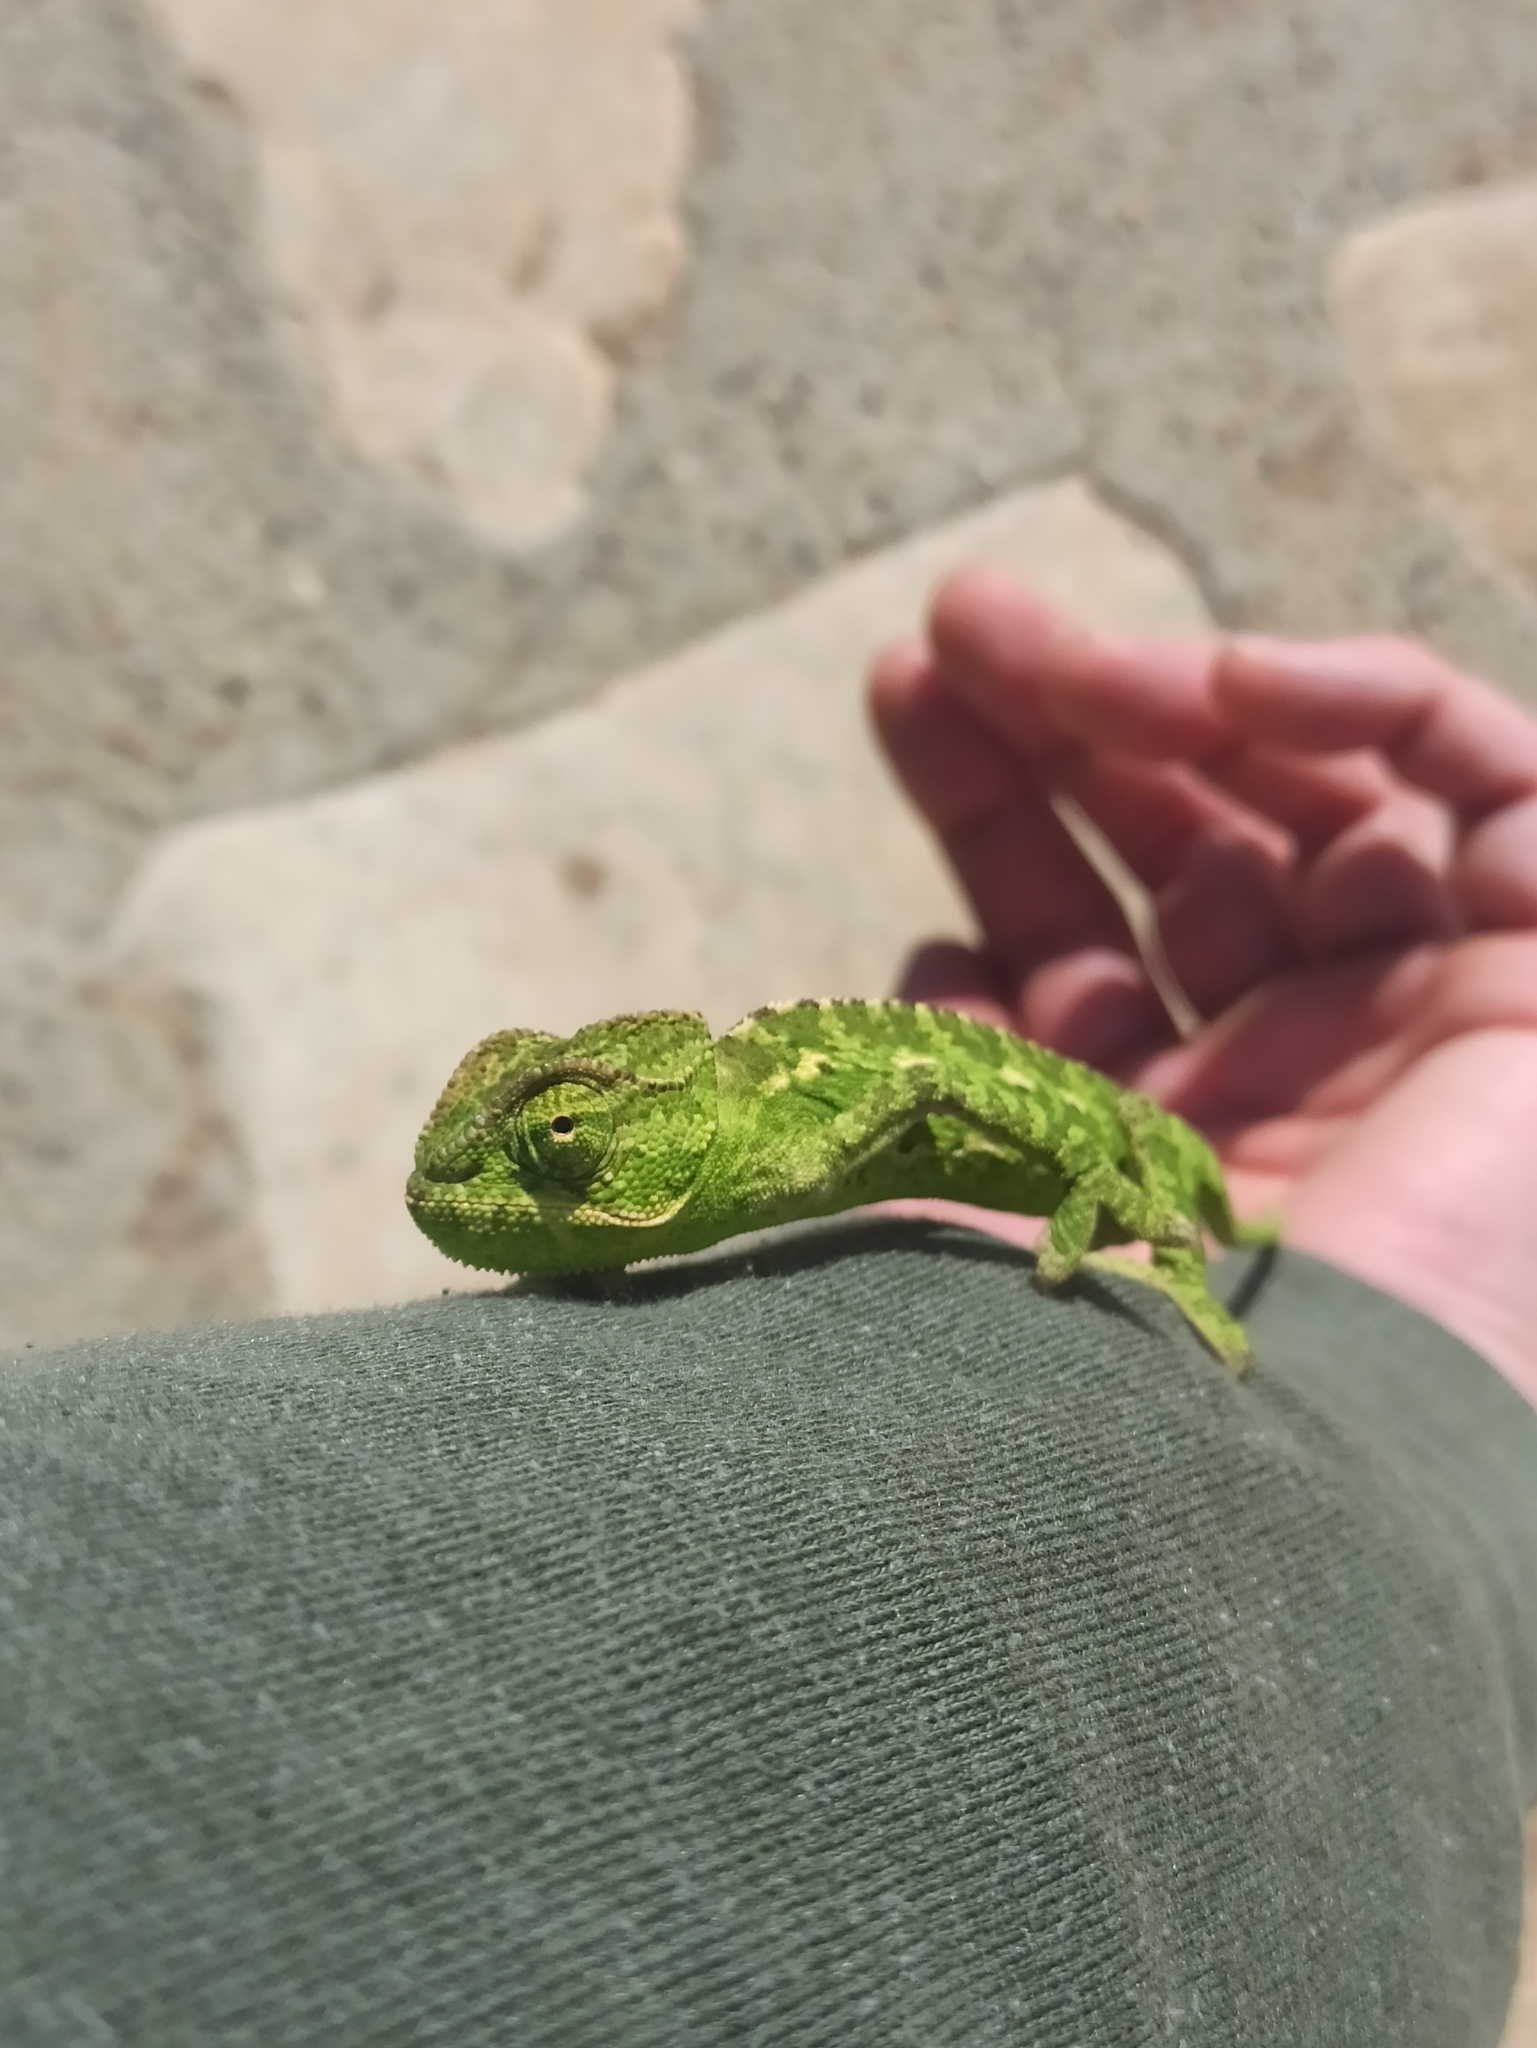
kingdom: Animalia
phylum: Chordata
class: Squamata
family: Chamaeleonidae
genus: Chamaeleo
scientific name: Chamaeleo chamaeleon
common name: Mediterranean chameleon
